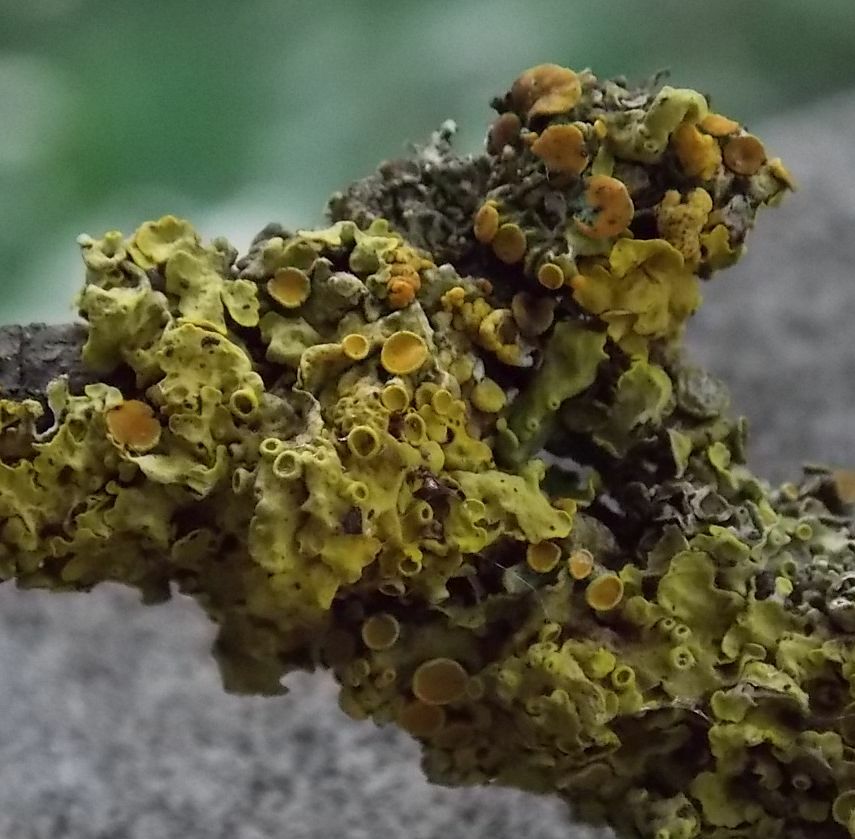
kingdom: Fungi
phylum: Ascomycota
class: Lecanoromycetes
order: Teloschistales
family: Teloschistaceae
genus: Xanthoria
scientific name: Xanthoria parietina
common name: Common orange lichen
